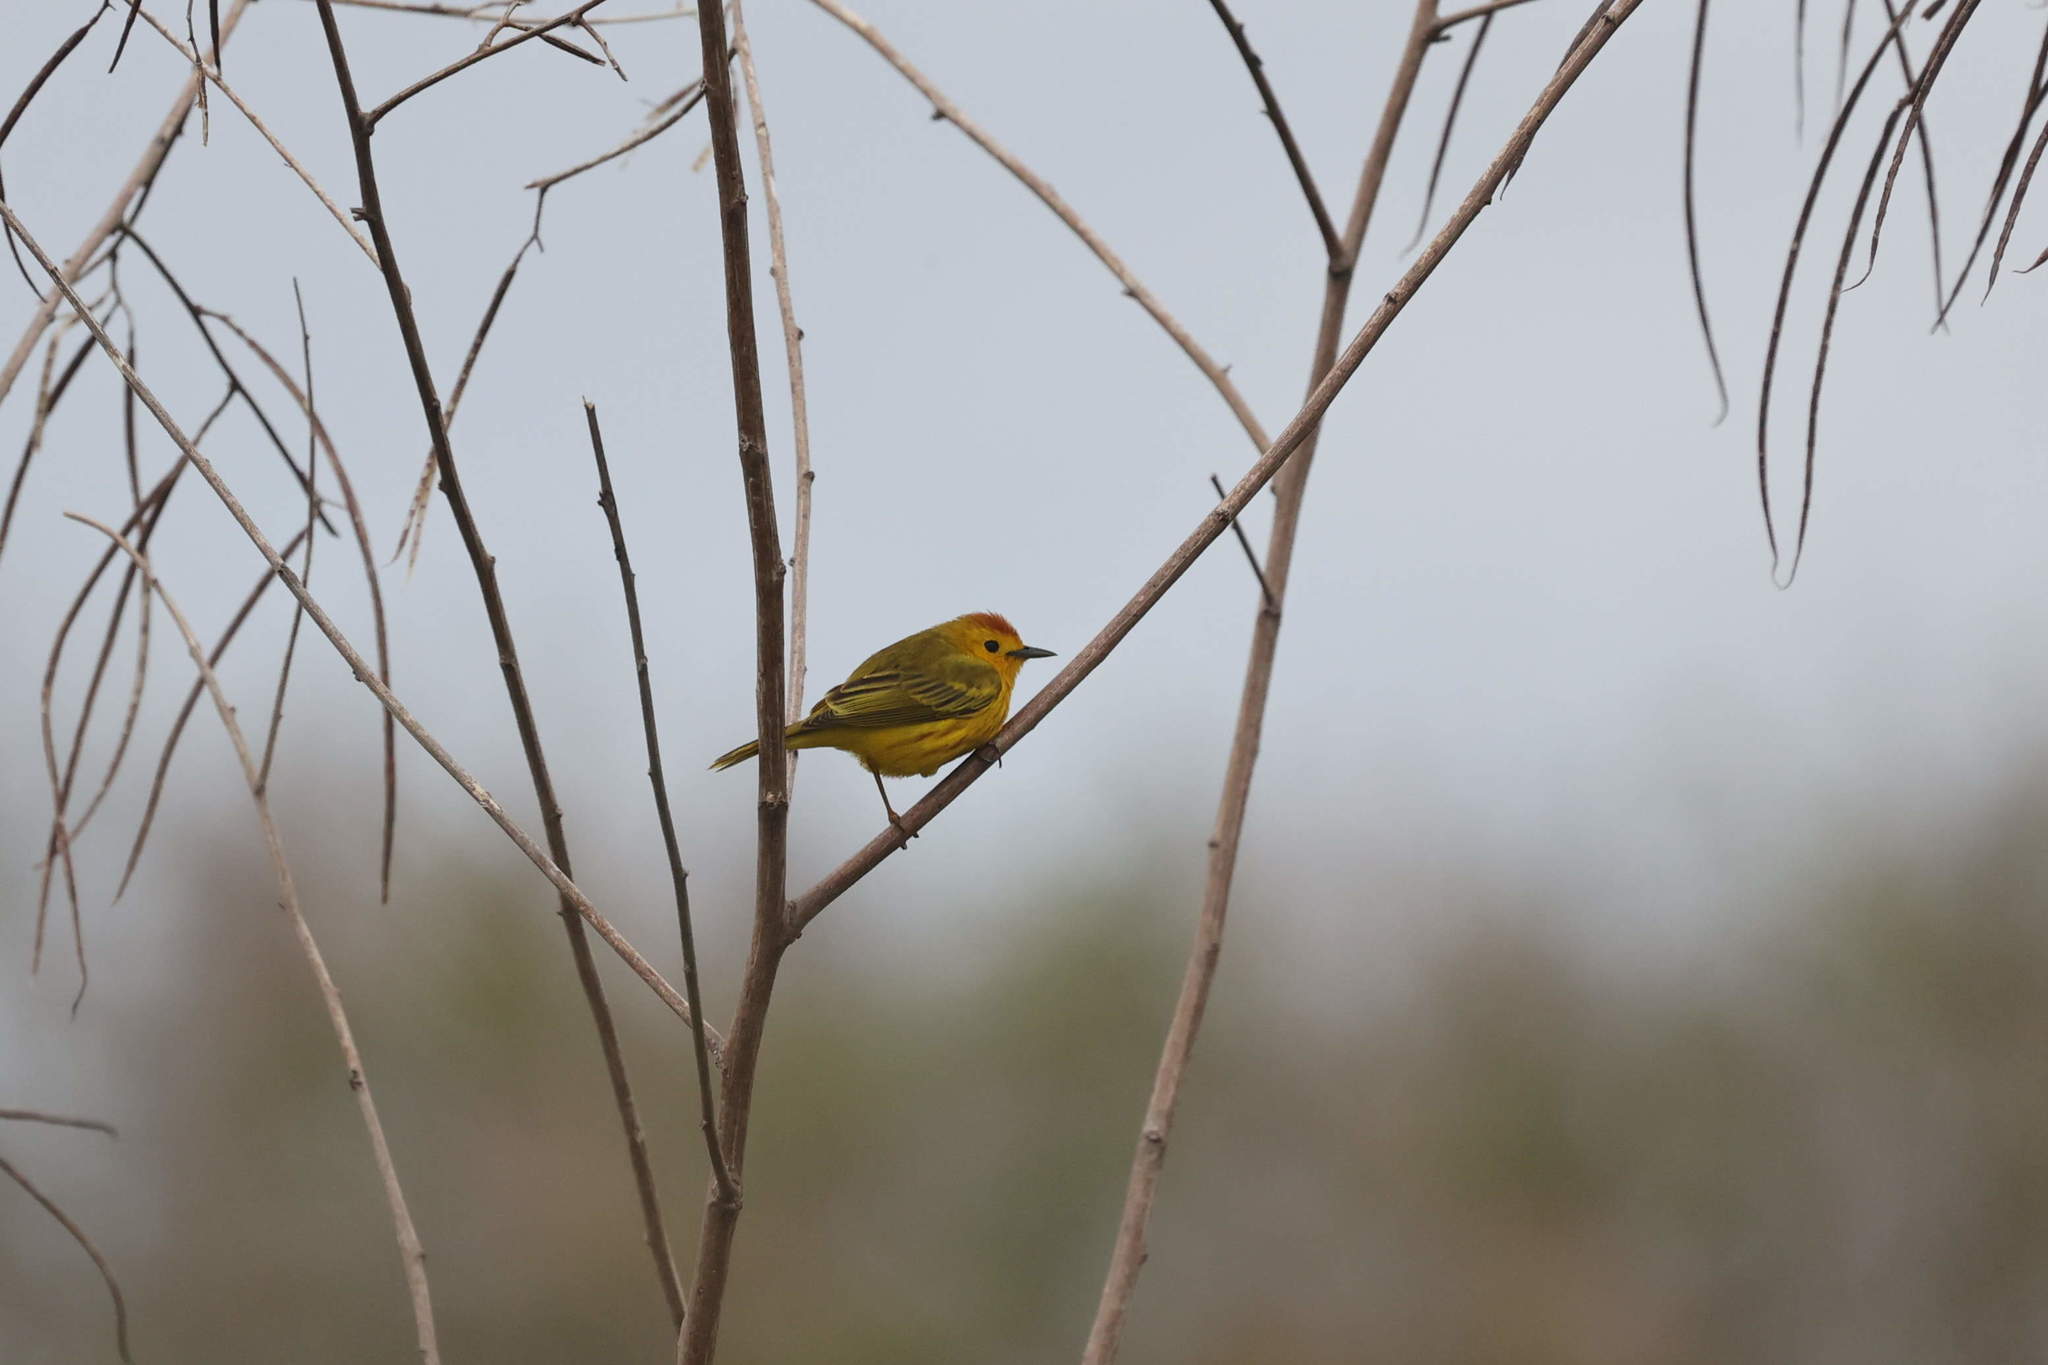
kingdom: Animalia
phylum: Chordata
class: Aves
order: Passeriformes
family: Parulidae
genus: Setophaga
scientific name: Setophaga petechia
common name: Yellow warbler
